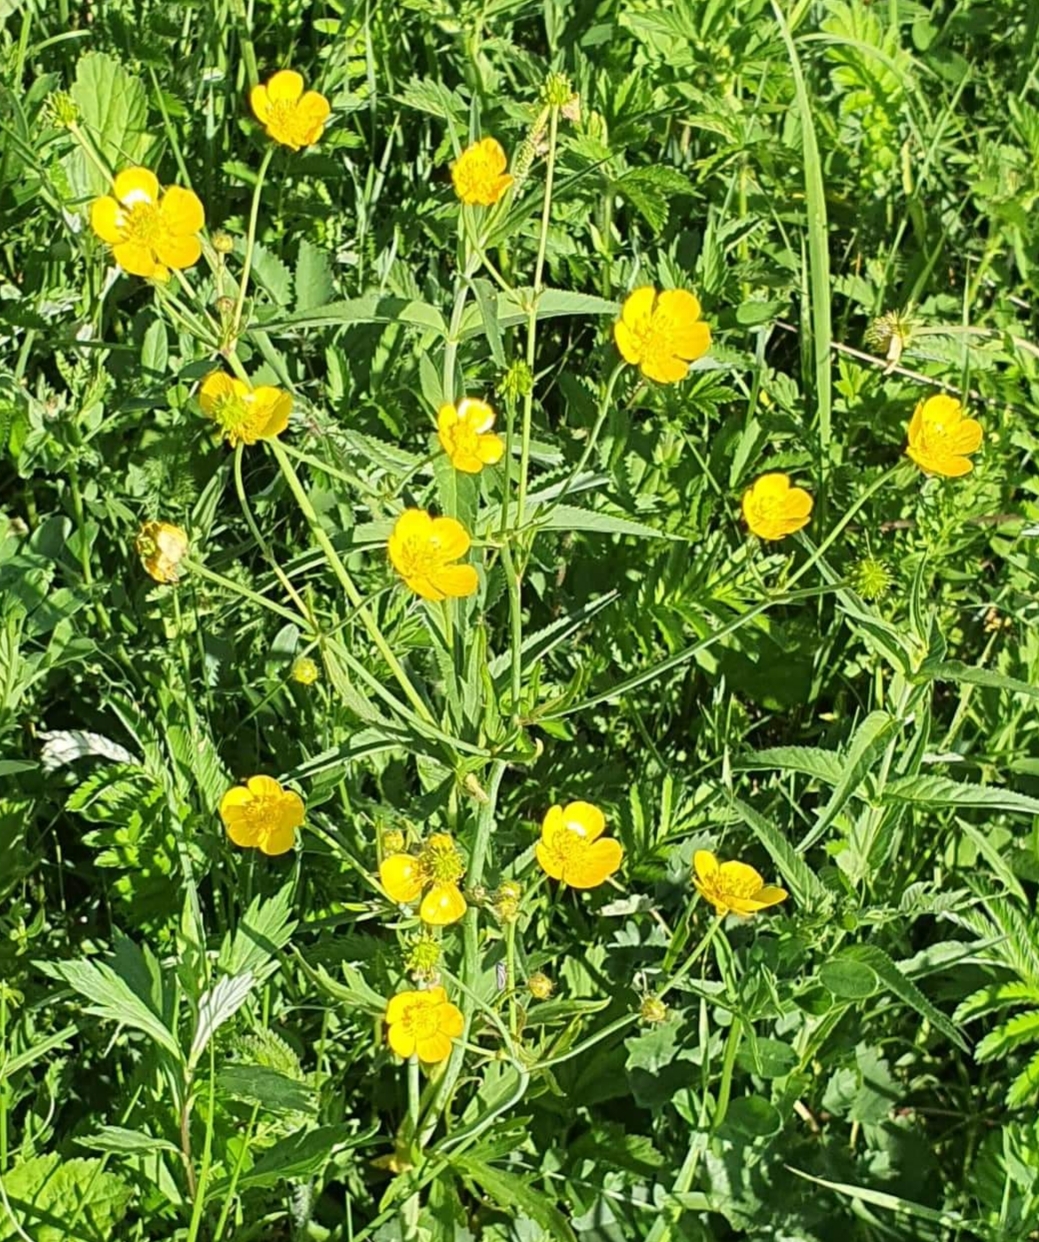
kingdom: Plantae
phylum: Tracheophyta
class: Magnoliopsida
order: Ranunculales
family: Ranunculaceae
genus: Ranunculus
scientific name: Ranunculus acris
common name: Meadow buttercup
